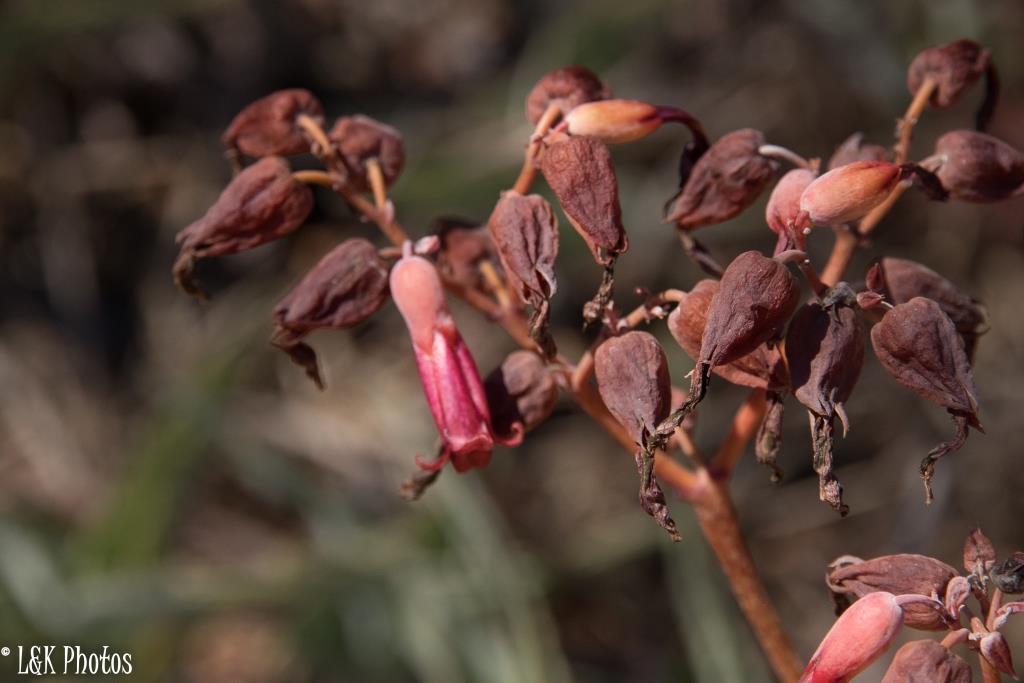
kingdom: Plantae
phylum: Tracheophyta
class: Magnoliopsida
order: Saxifragales
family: Crassulaceae
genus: Kalanchoe
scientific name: Kalanchoe gastonis-bonnieri
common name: Palm beachbells
